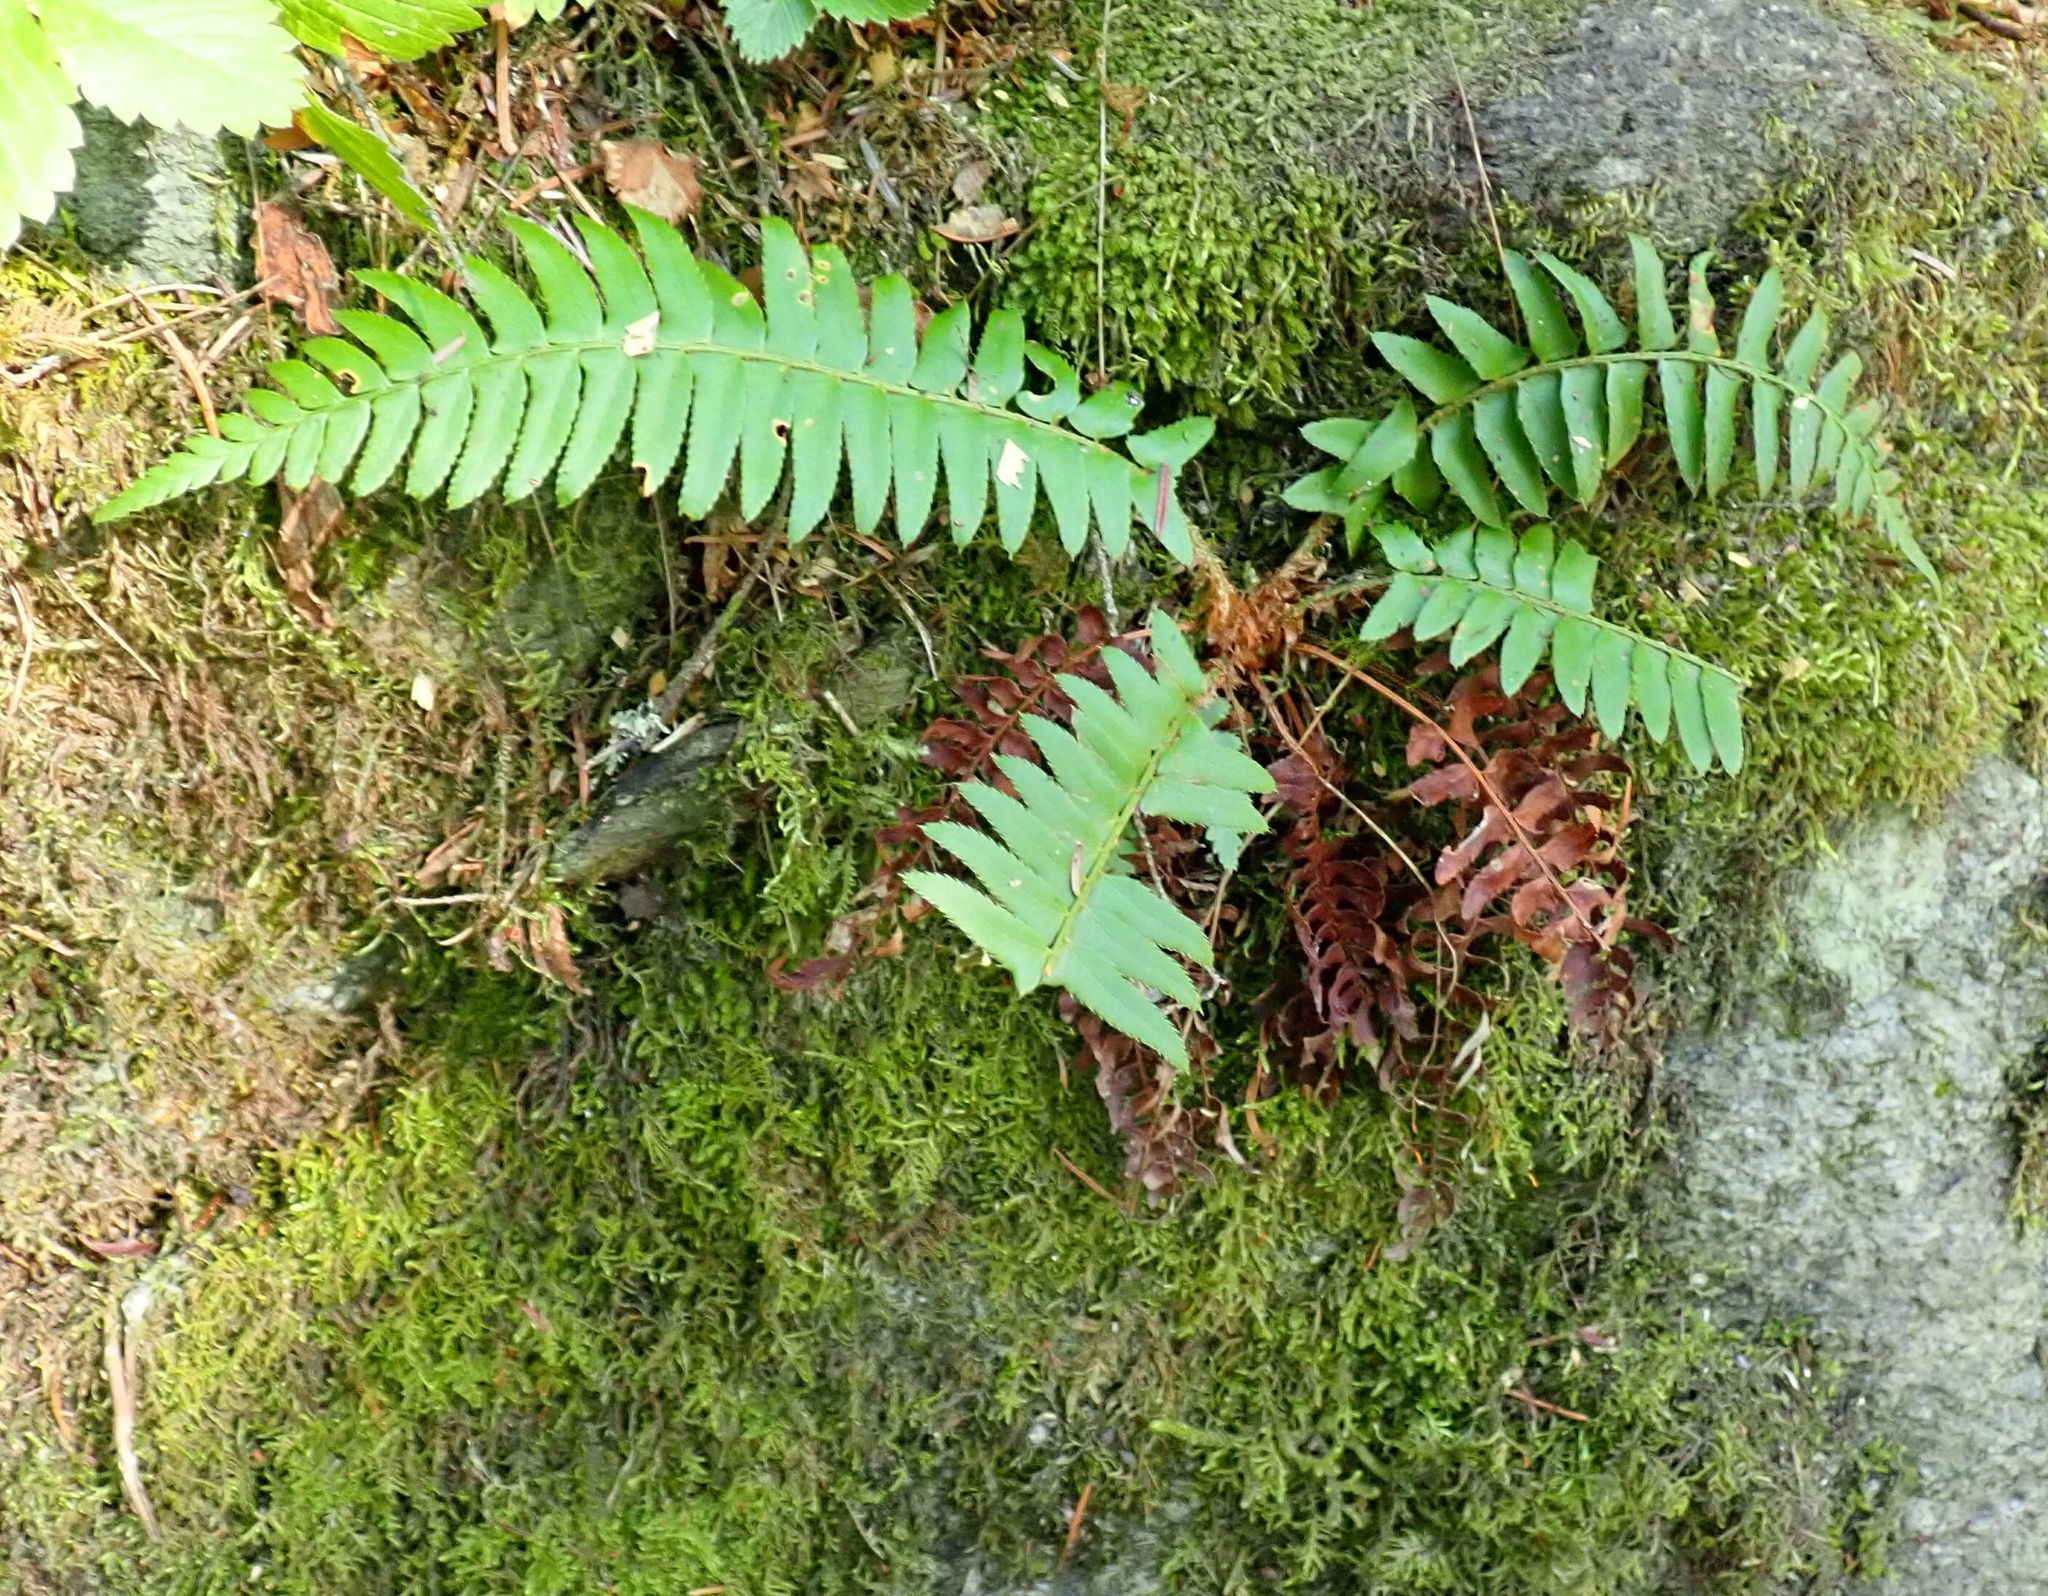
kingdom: Plantae
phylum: Tracheophyta
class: Polypodiopsida
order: Polypodiales
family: Dryopteridaceae
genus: Polystichum
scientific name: Polystichum munitum
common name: Western sword-fern
